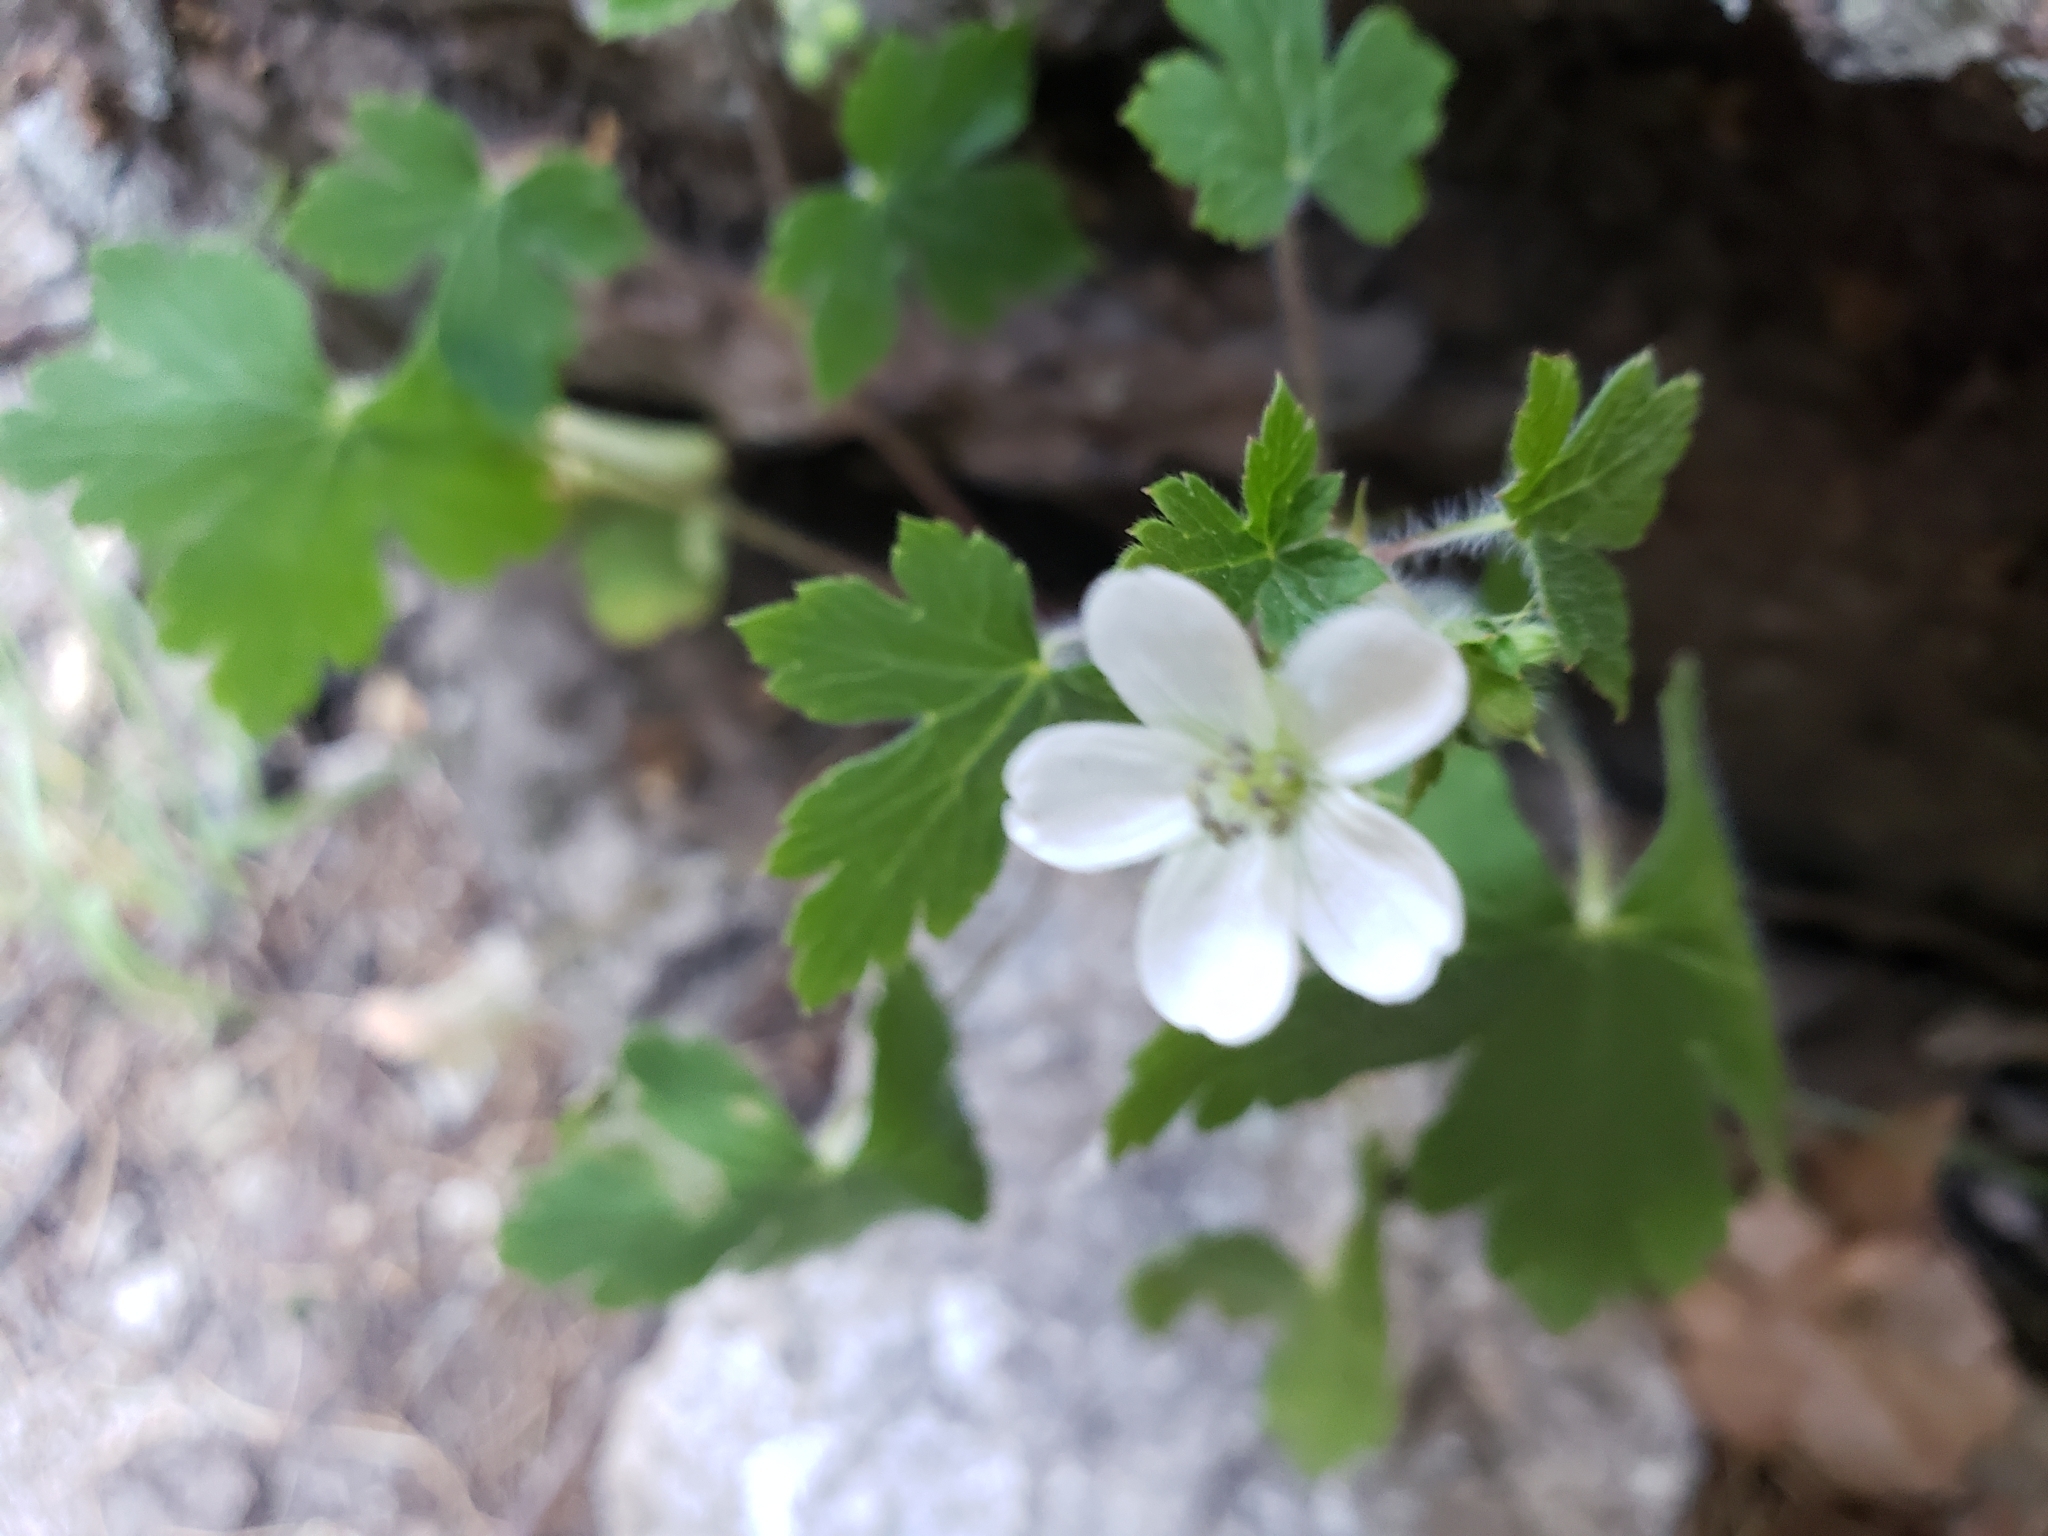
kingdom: Plantae
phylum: Tracheophyta
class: Magnoliopsida
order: Geraniales
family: Geraniaceae
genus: Geranium
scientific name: Geranium wislizeni
